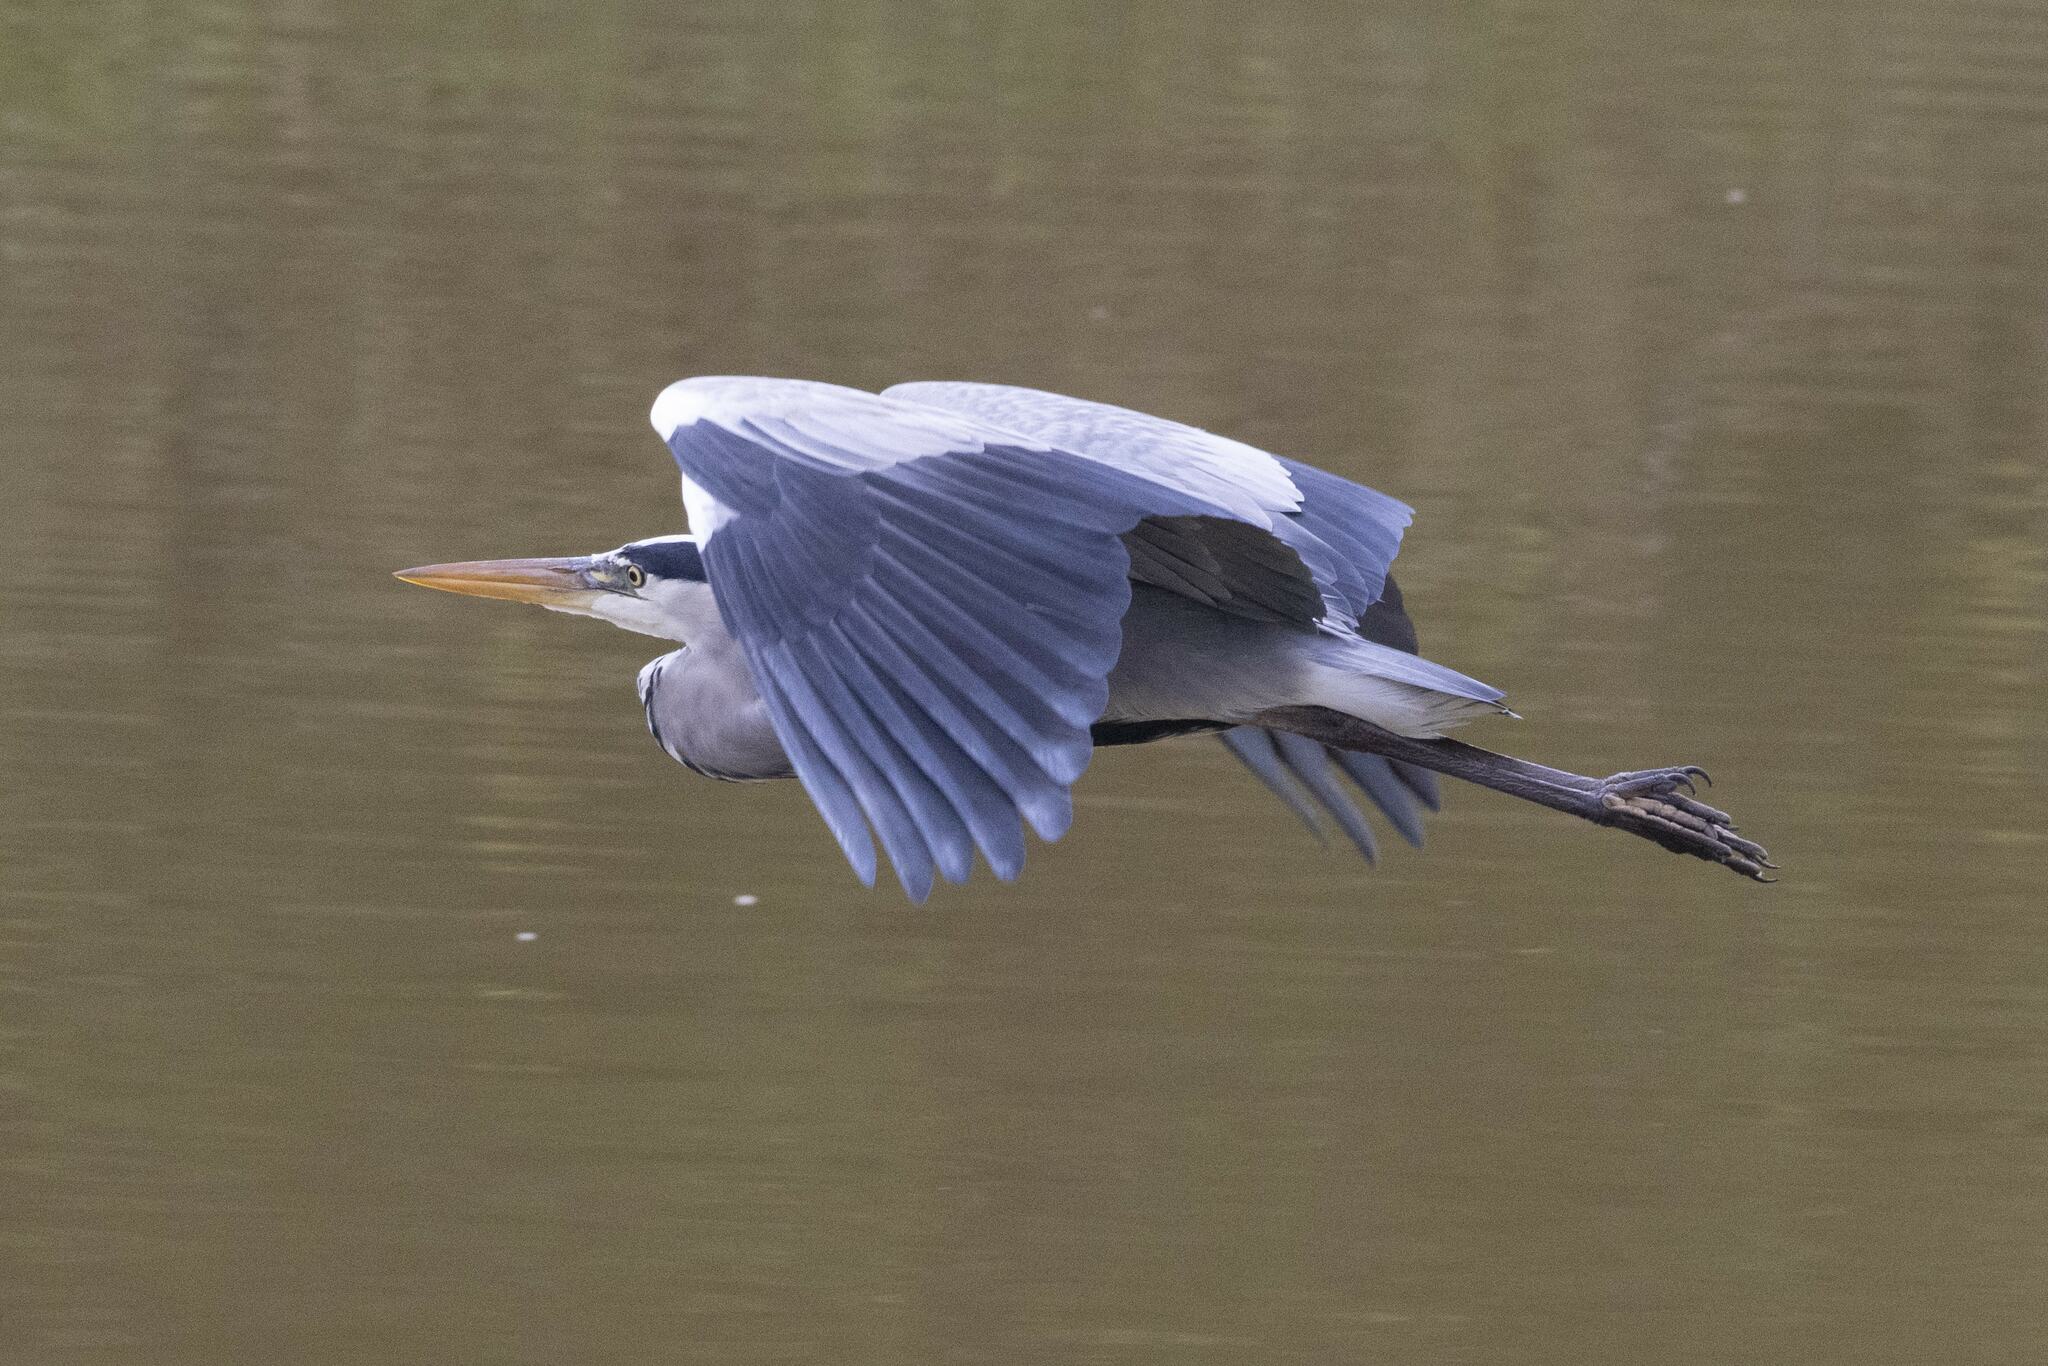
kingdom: Animalia
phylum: Chordata
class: Aves
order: Pelecaniformes
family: Ardeidae
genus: Ardea
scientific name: Ardea cinerea
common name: Grey heron
